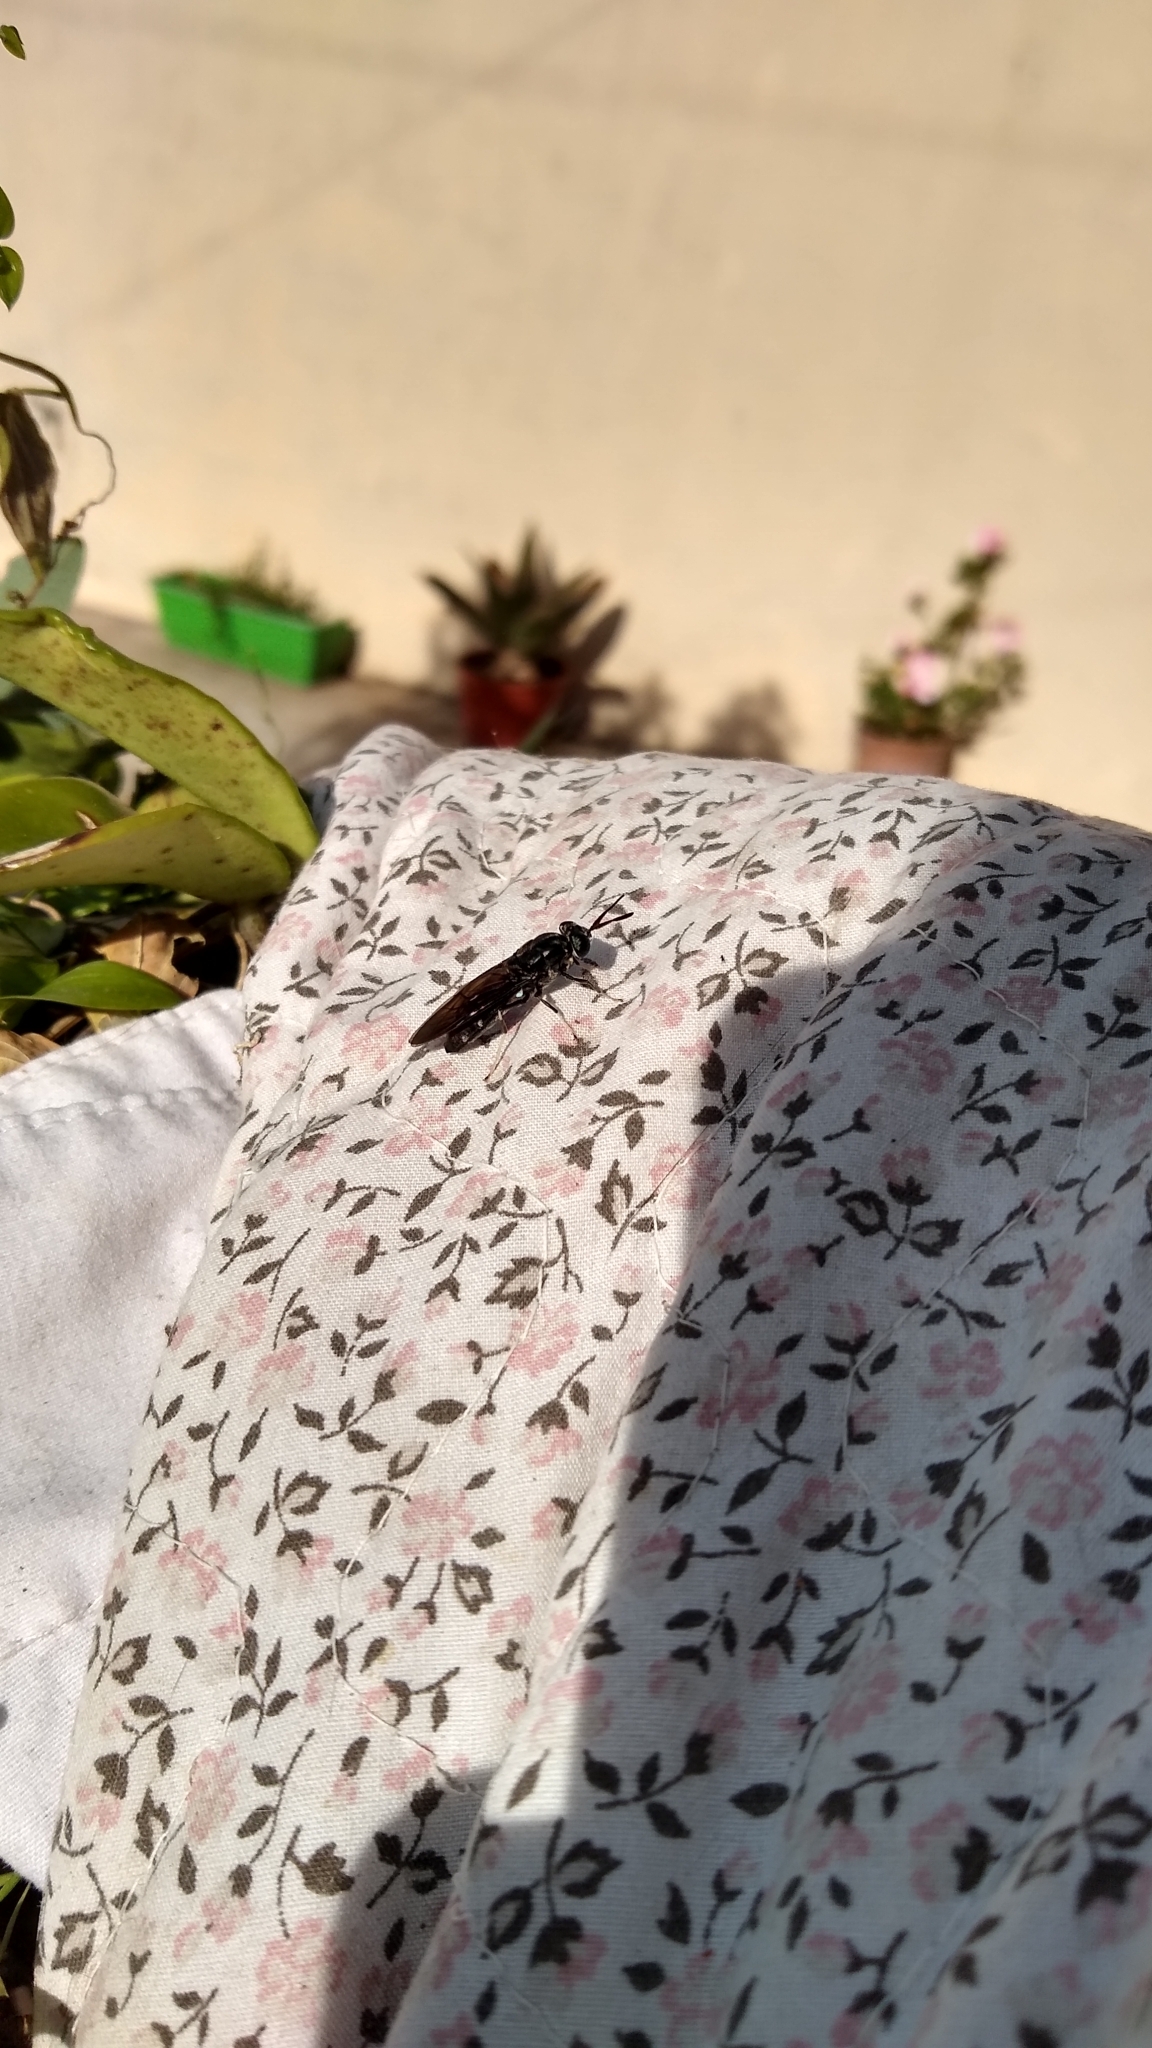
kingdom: Animalia
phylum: Arthropoda
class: Insecta
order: Diptera
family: Stratiomyidae
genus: Hermetia
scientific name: Hermetia illucens
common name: Black soldier fly
